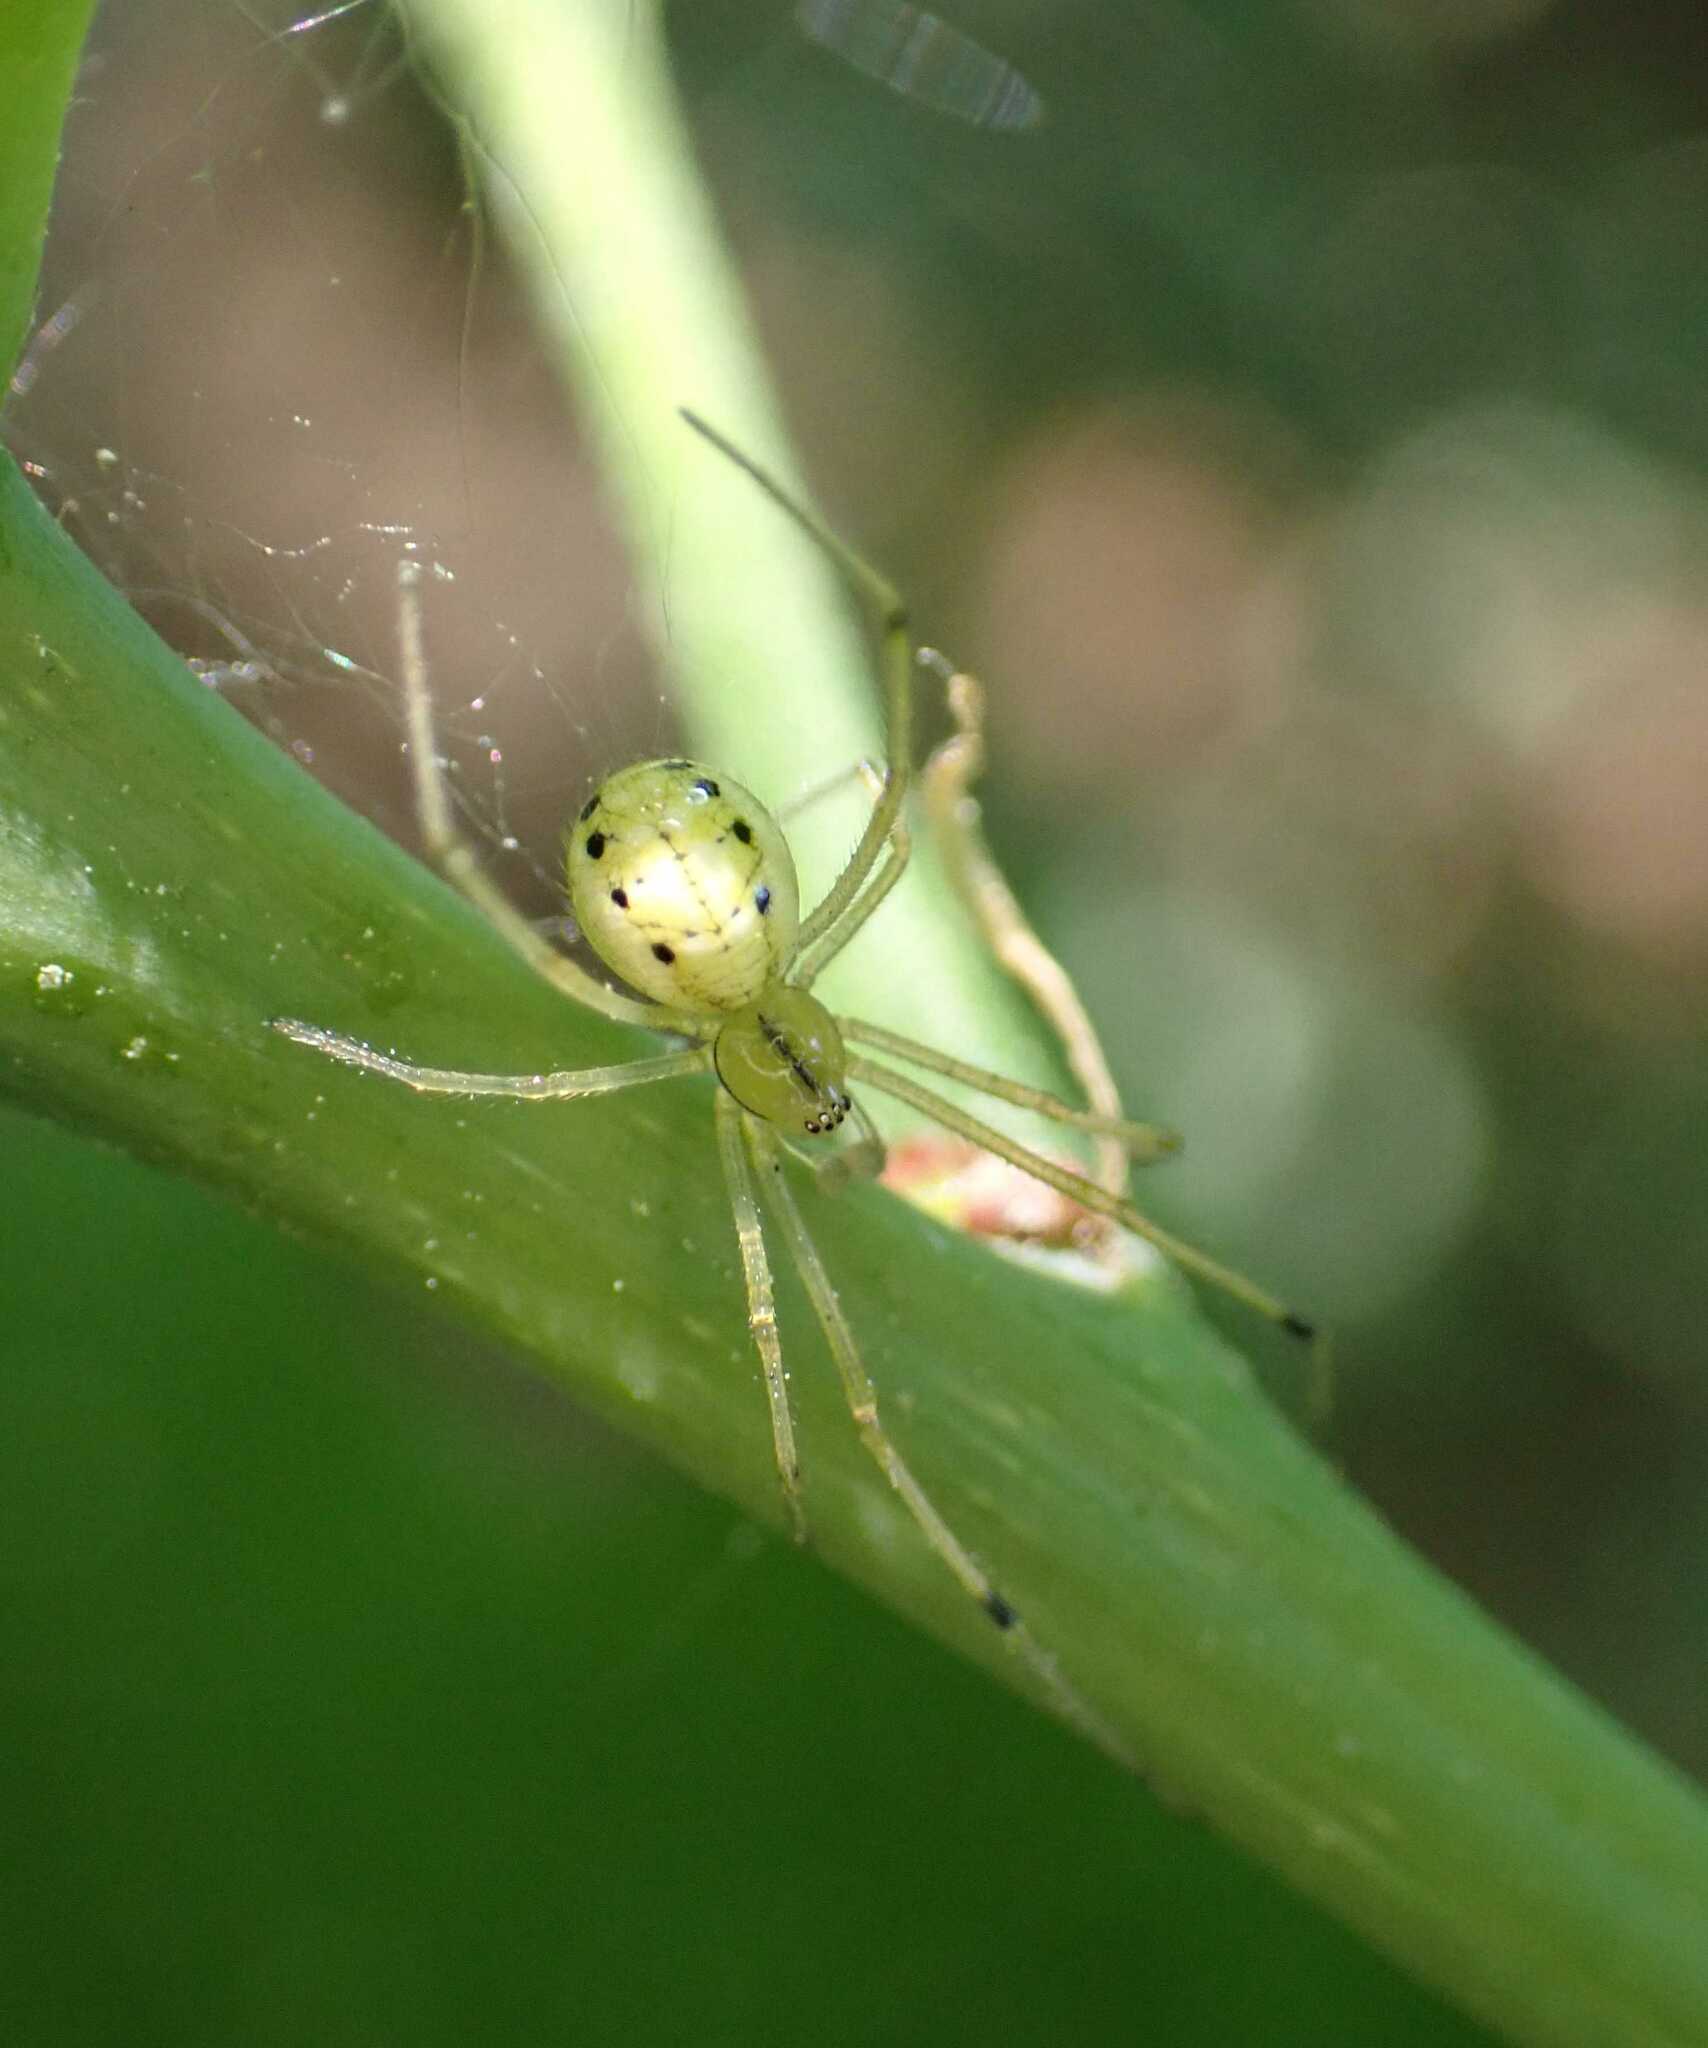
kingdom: Animalia
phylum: Arthropoda
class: Arachnida
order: Araneae
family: Theridiidae
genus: Enoplognatha
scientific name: Enoplognatha
